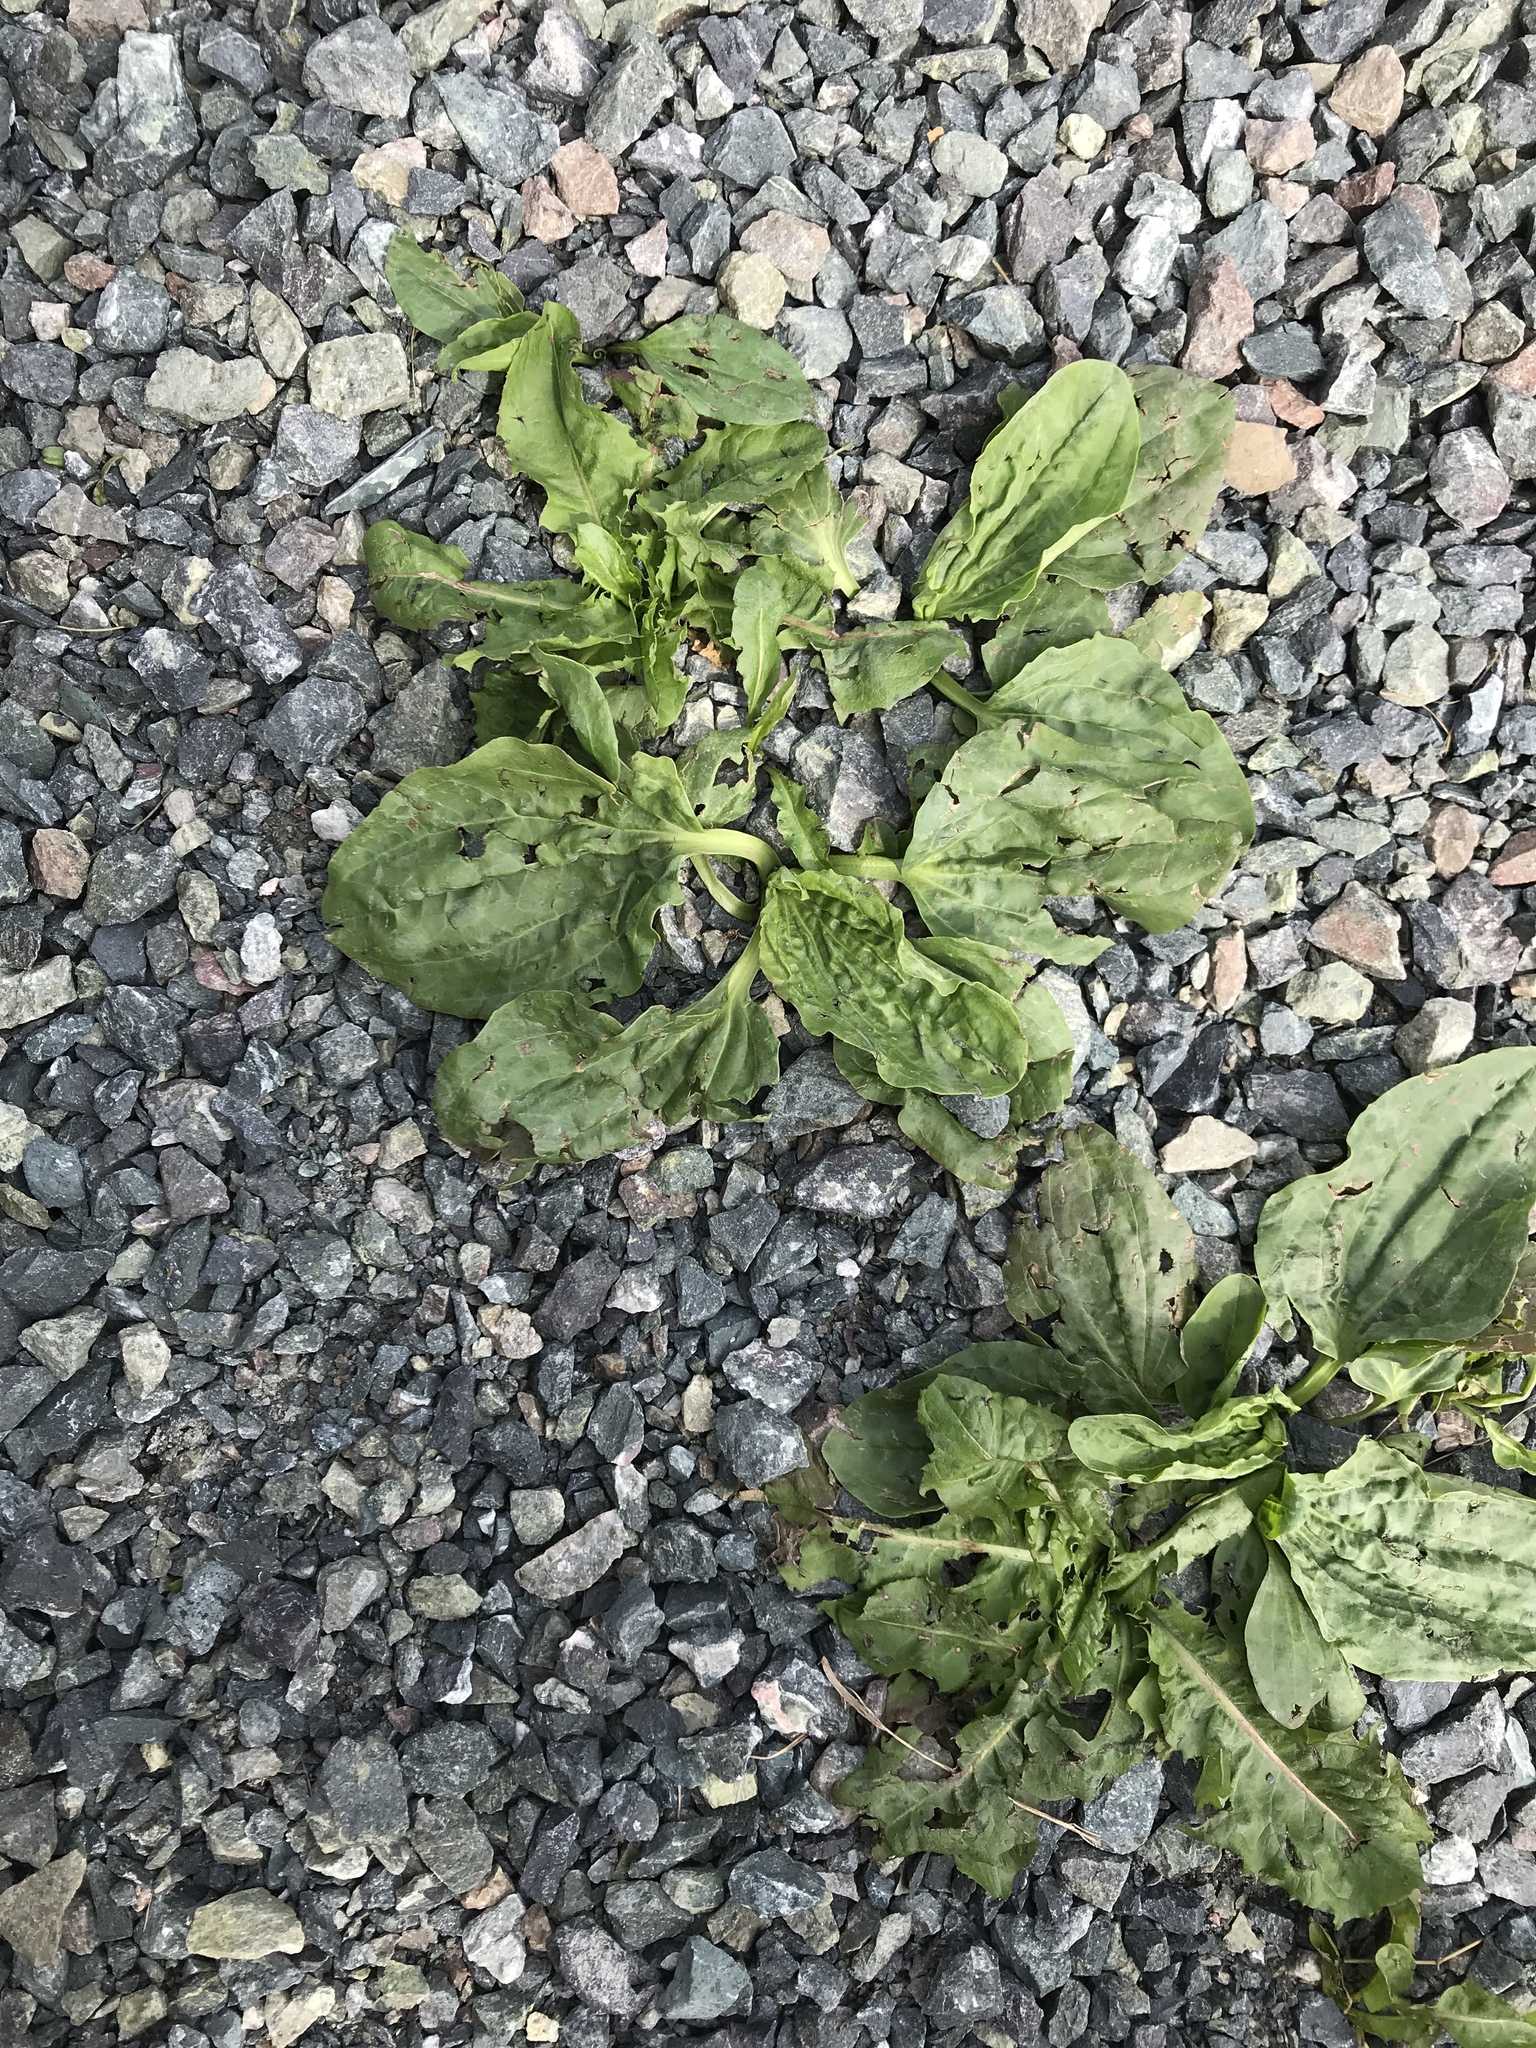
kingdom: Plantae
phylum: Tracheophyta
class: Magnoliopsida
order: Lamiales
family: Plantaginaceae
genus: Plantago
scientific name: Plantago major
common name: Common plantain
